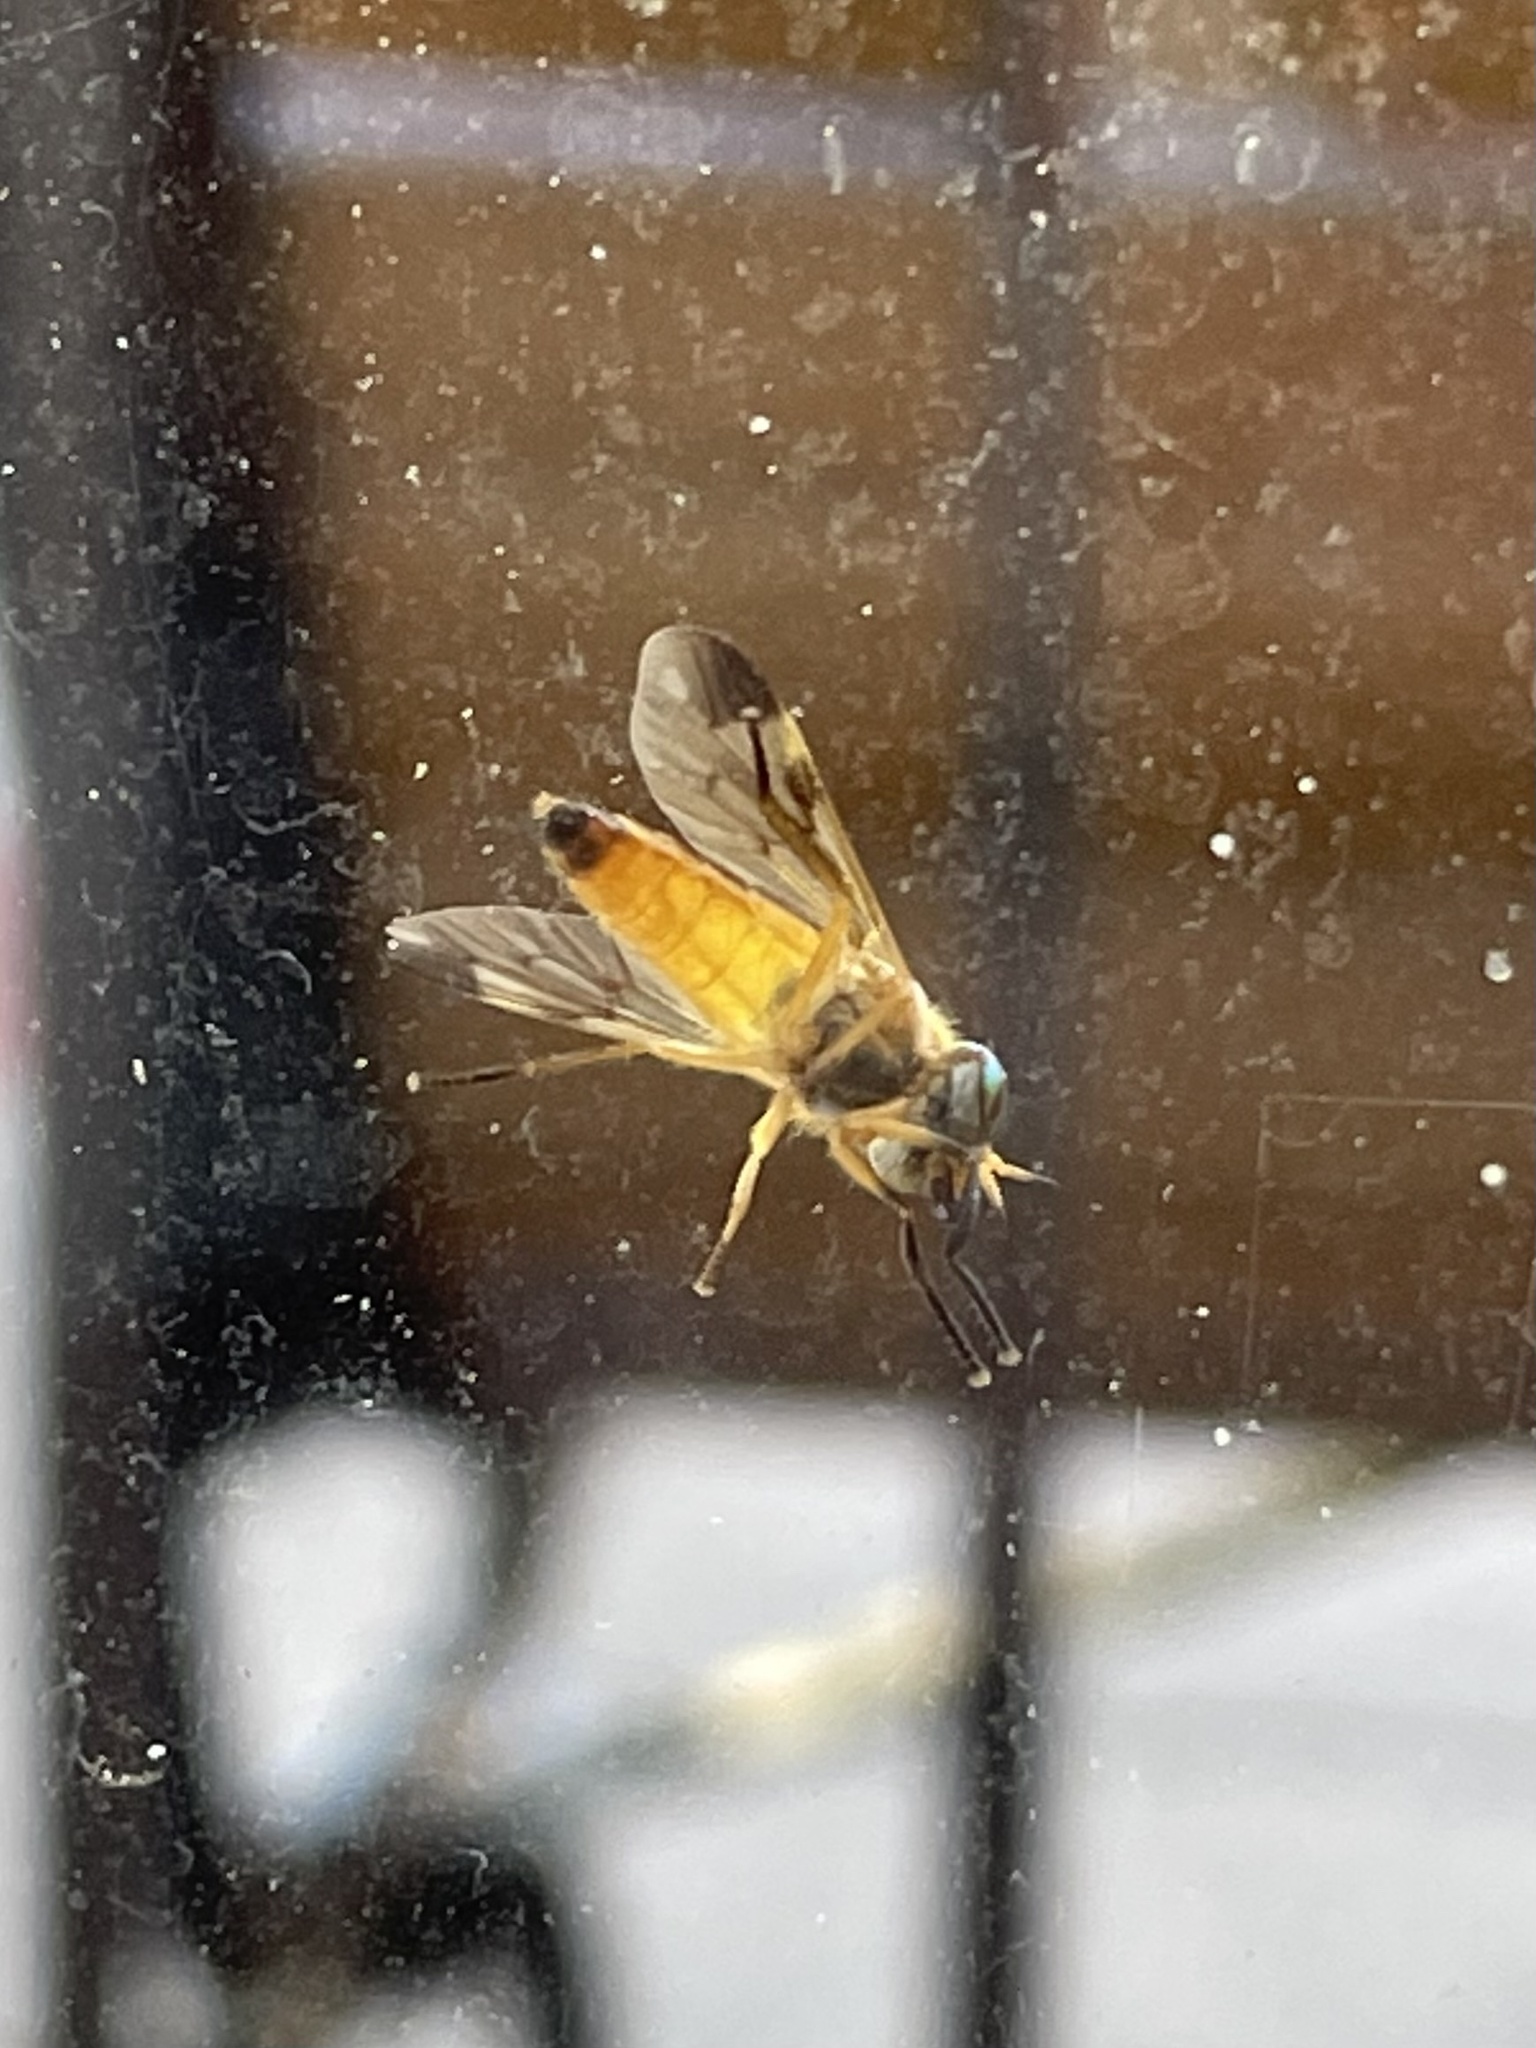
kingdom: Animalia
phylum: Arthropoda
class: Insecta
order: Diptera
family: Tabanidae
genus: Diachlorus
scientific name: Diachlorus ferrugatus
